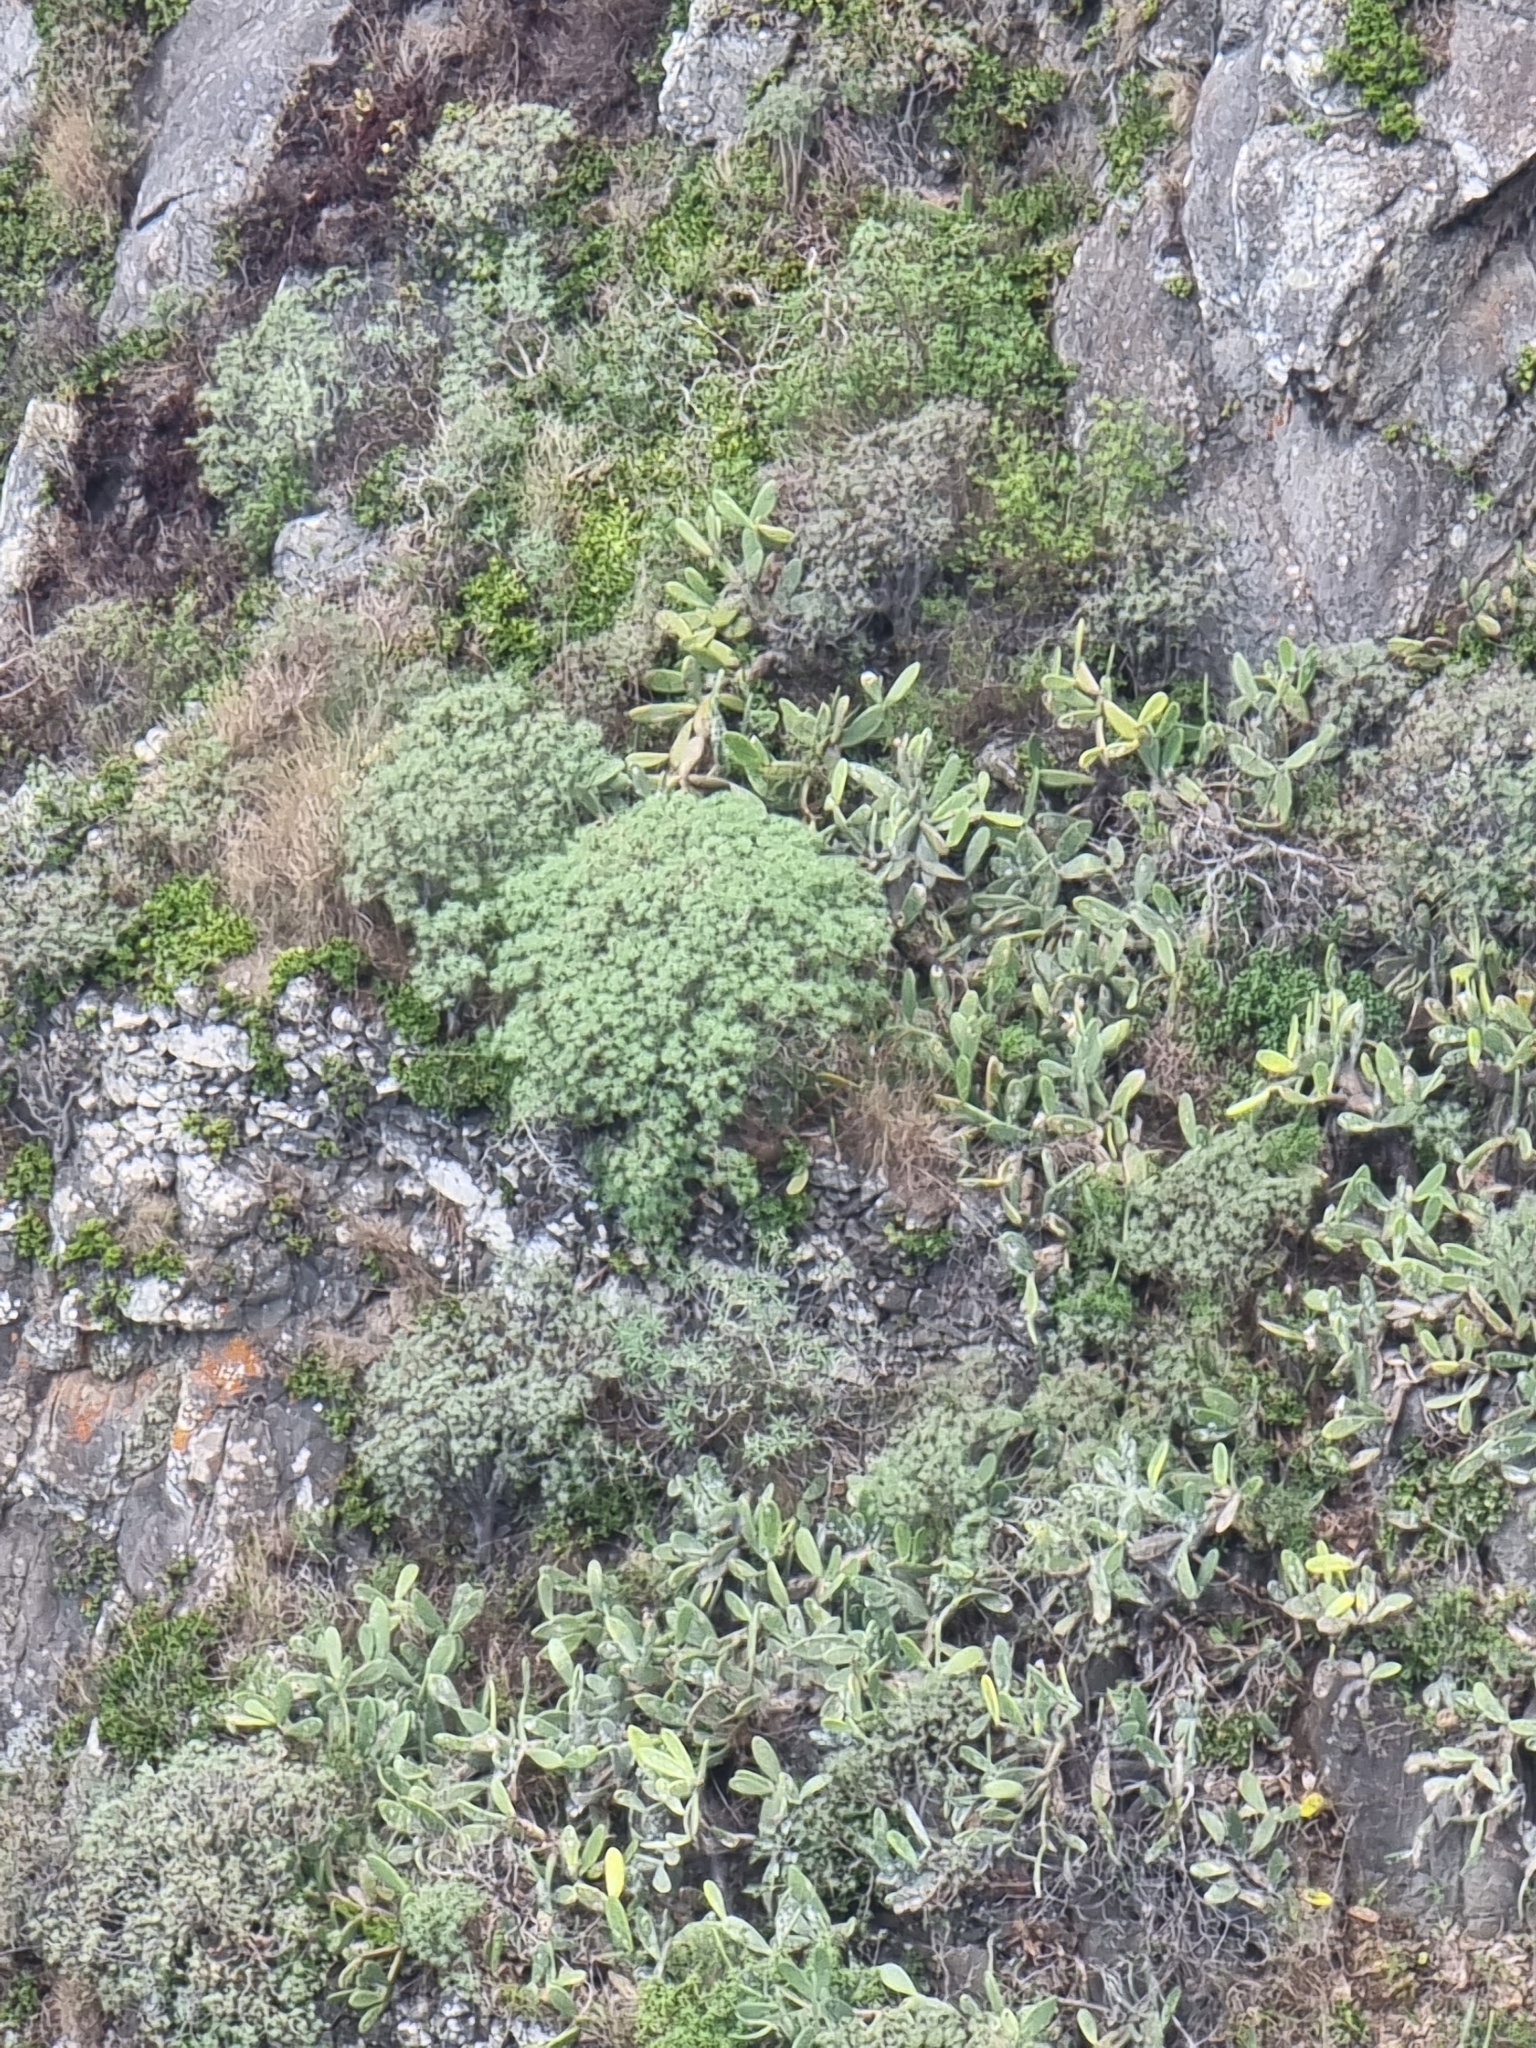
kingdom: Plantae
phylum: Tracheophyta
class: Magnoliopsida
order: Malpighiales
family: Euphorbiaceae
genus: Euphorbia
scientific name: Euphorbia piscatoria
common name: Fish-stunning spurge
